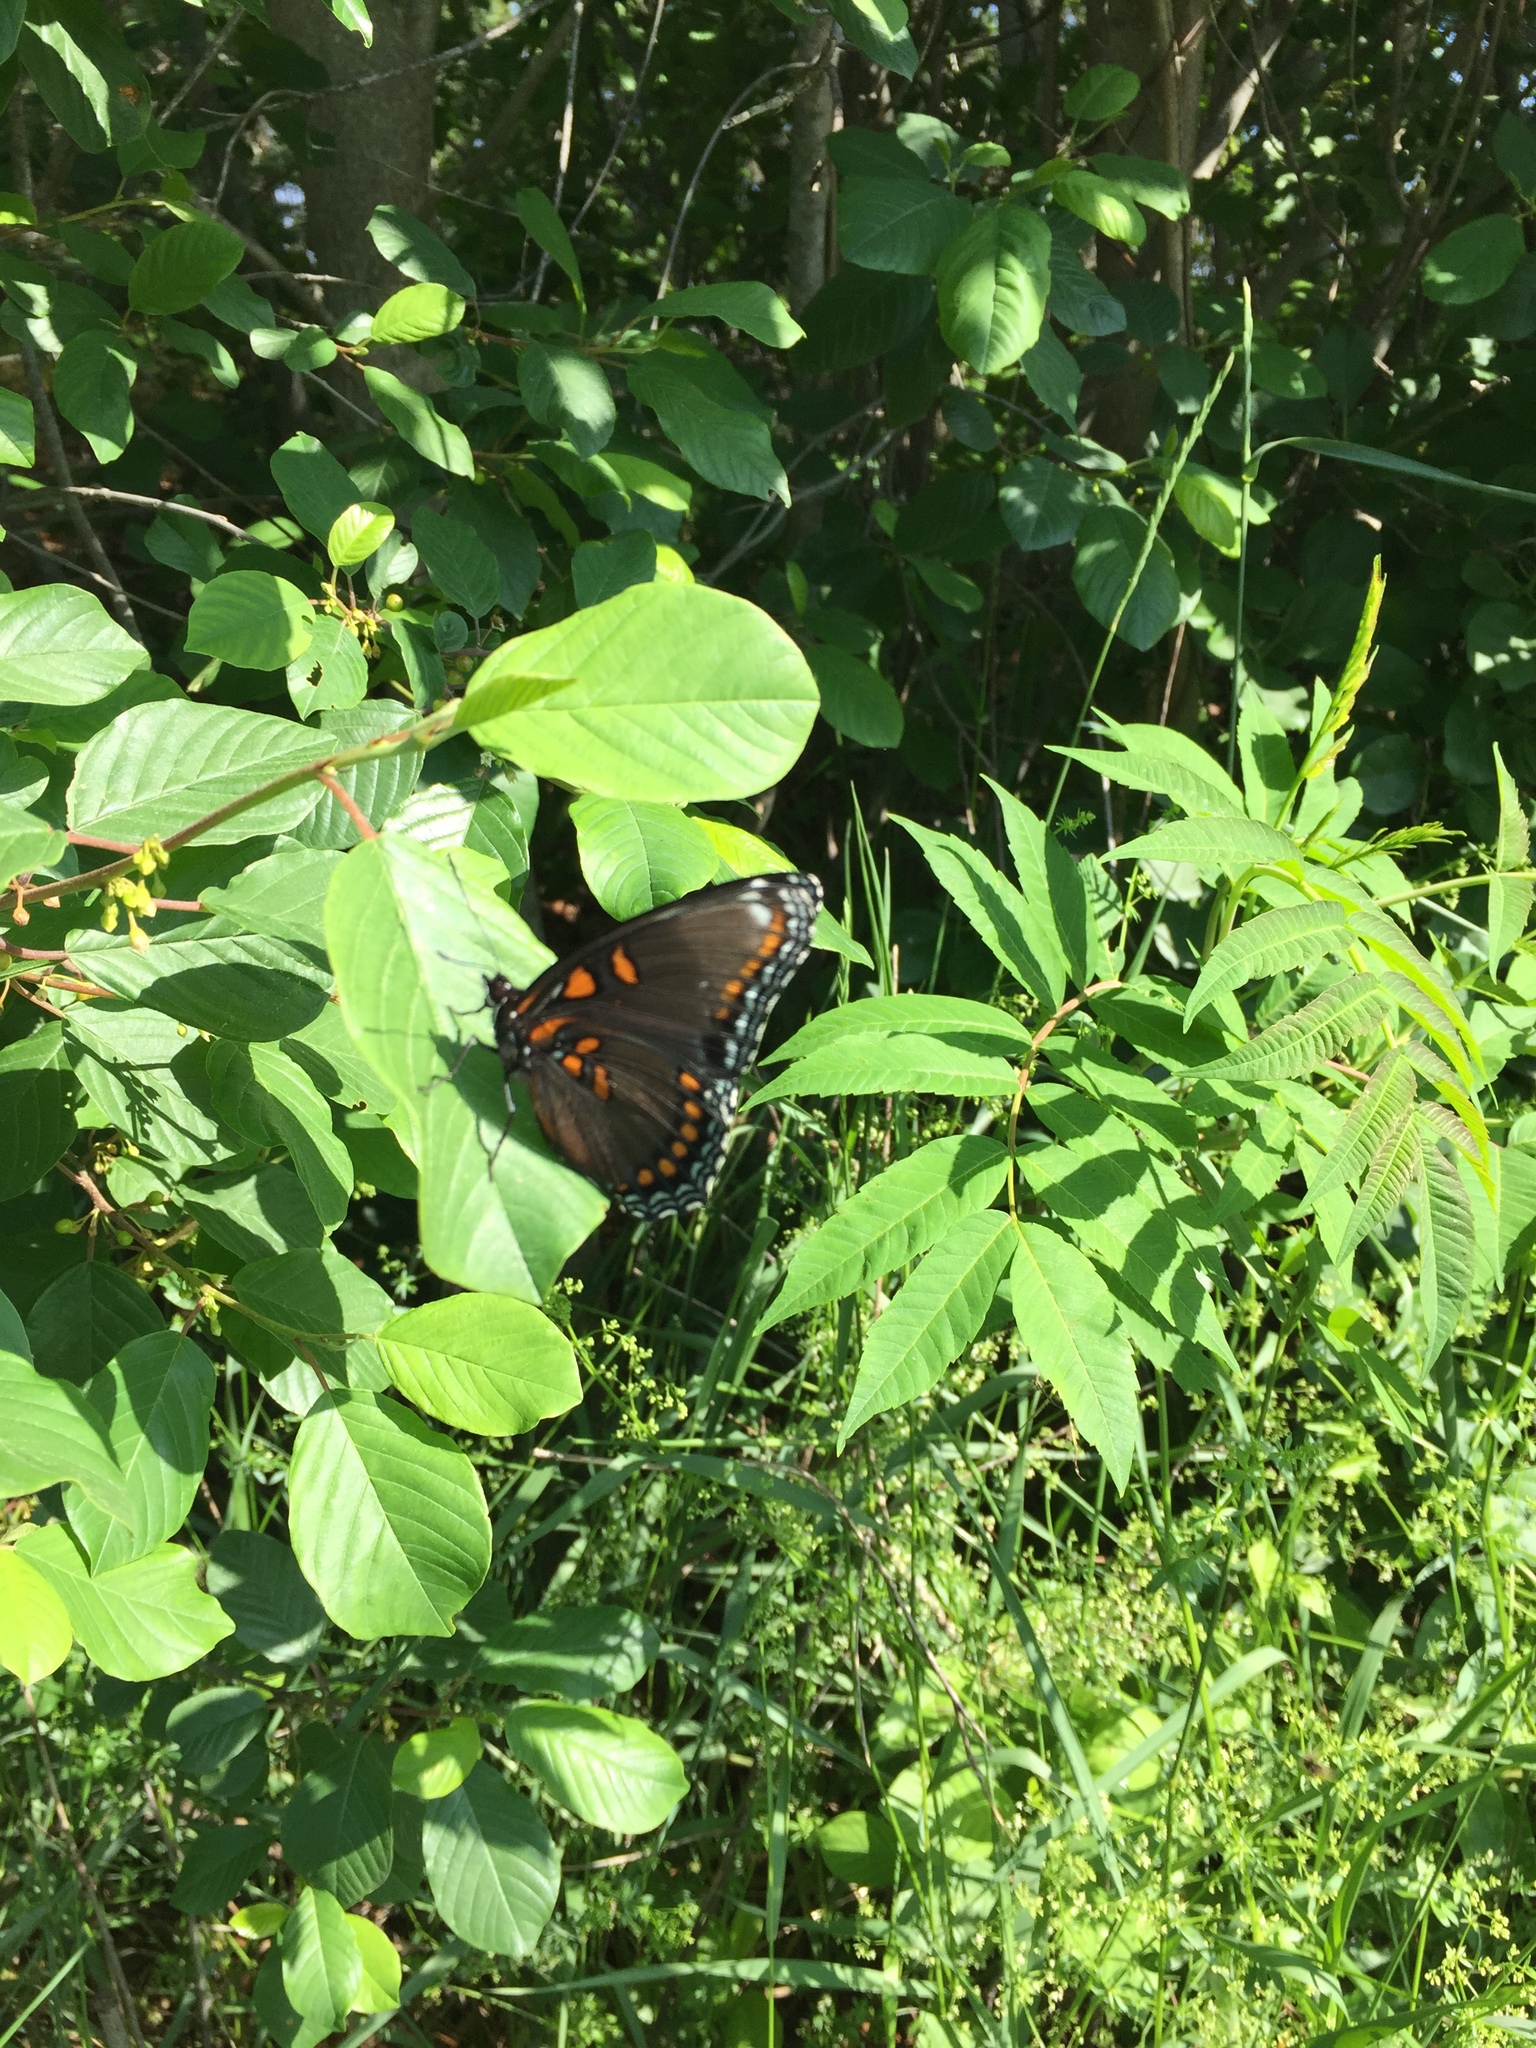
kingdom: Animalia
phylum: Arthropoda
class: Insecta
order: Lepidoptera
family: Nymphalidae
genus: Limenitis
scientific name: Limenitis astyanax
